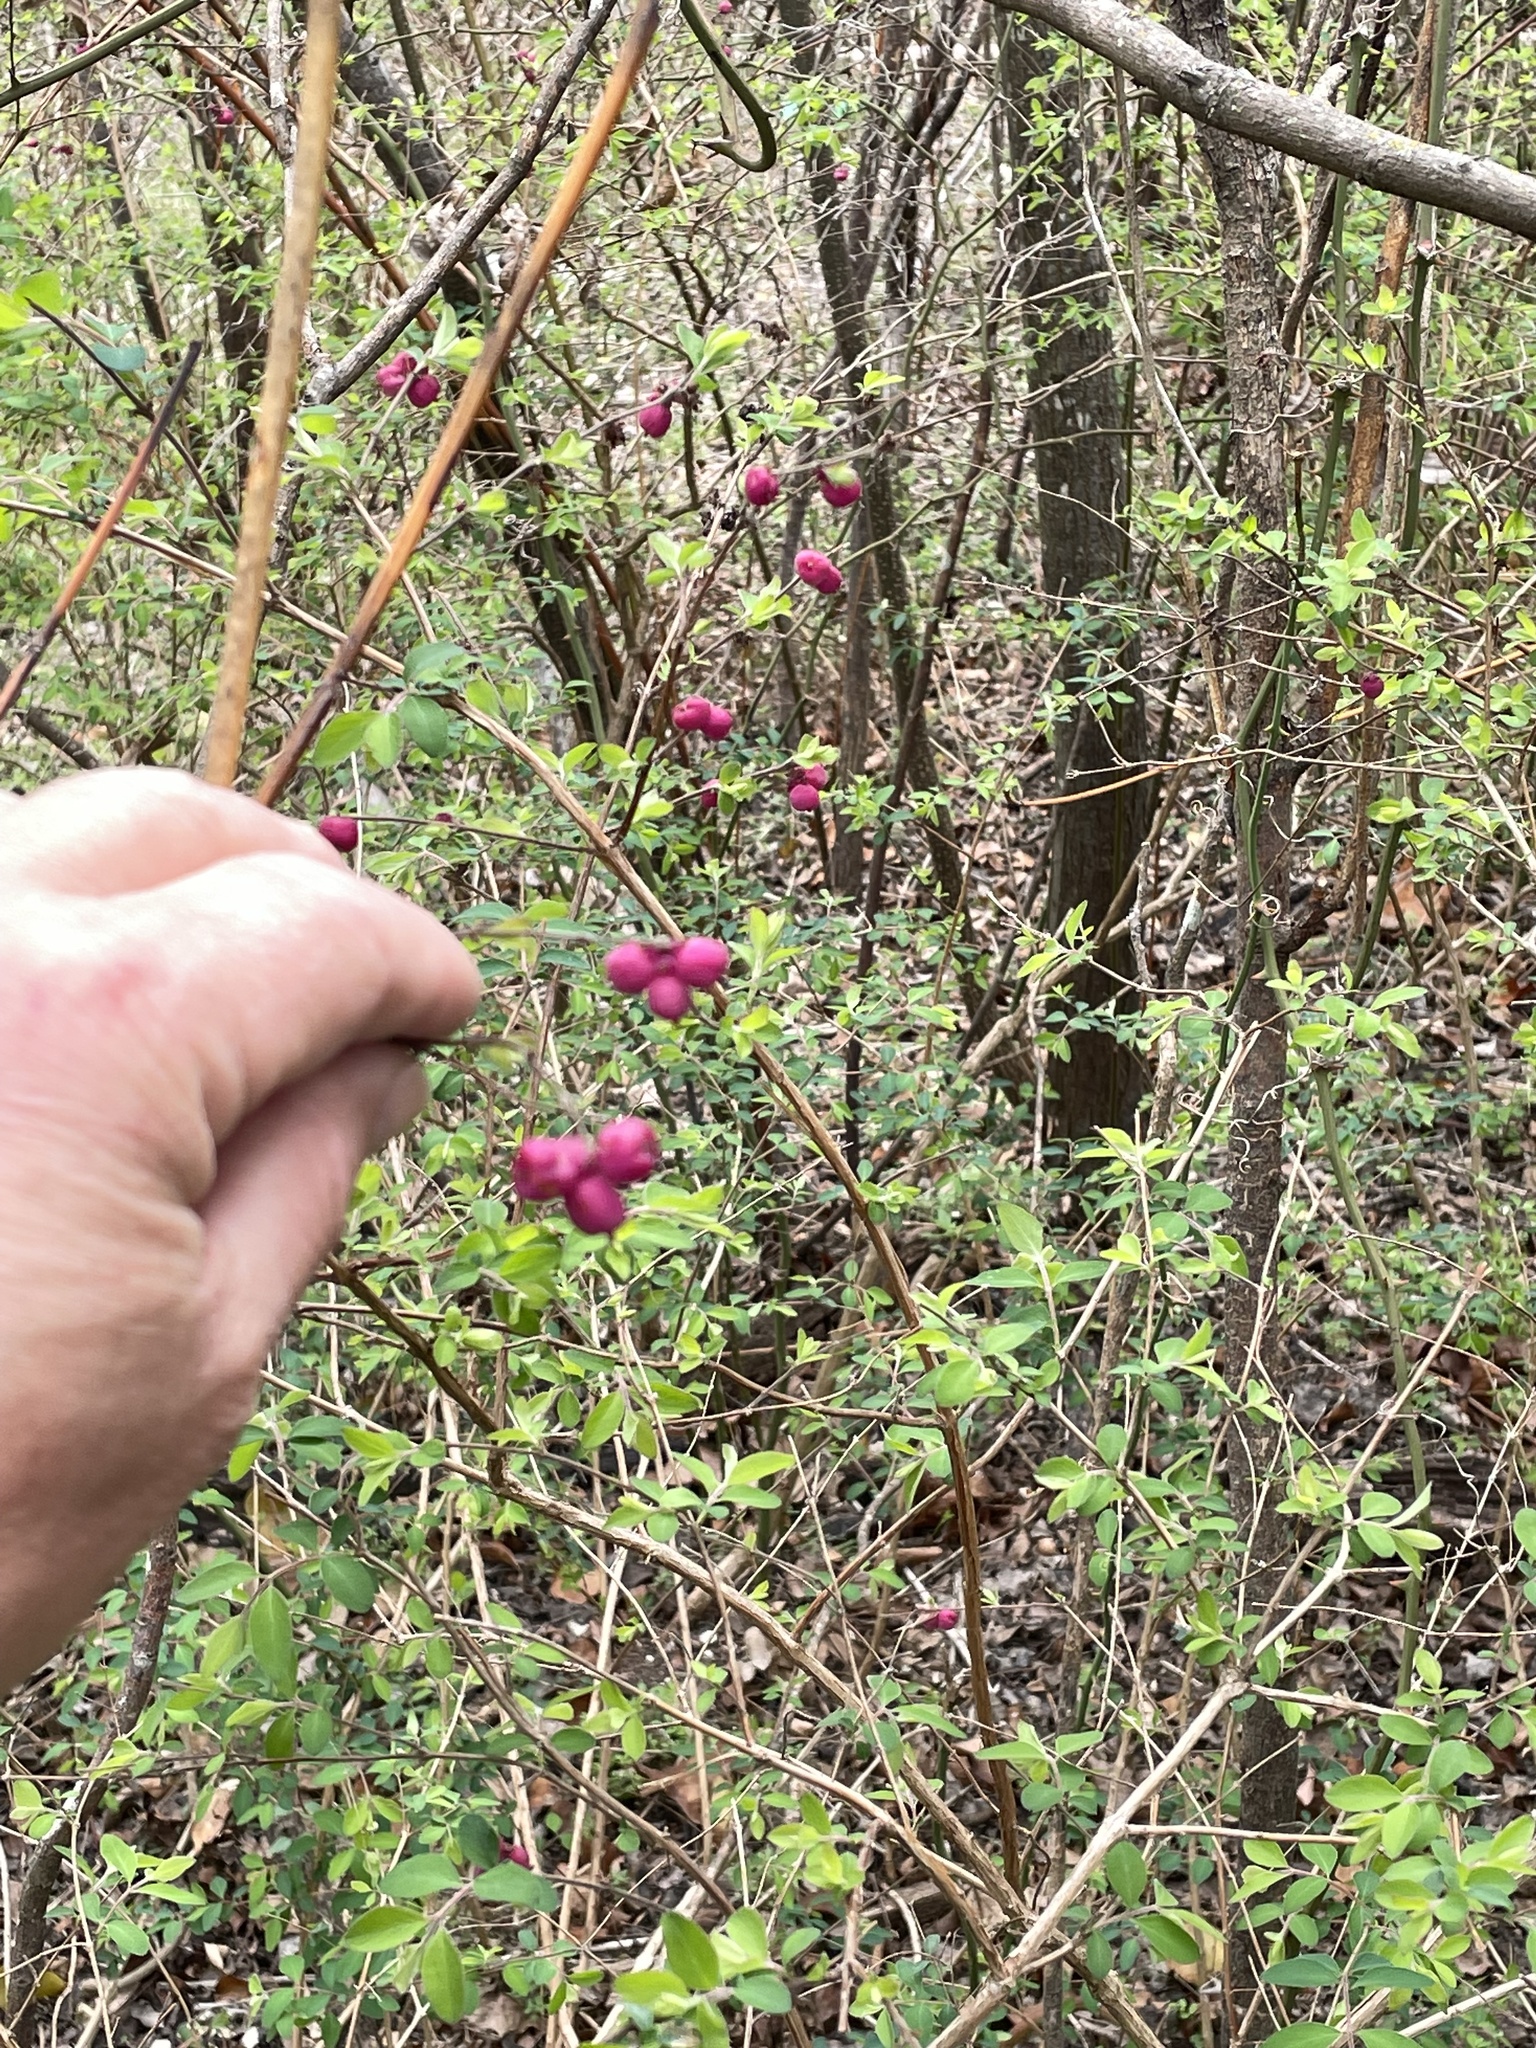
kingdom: Plantae
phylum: Tracheophyta
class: Magnoliopsida
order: Dipsacales
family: Caprifoliaceae
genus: Symphoricarpos
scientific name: Symphoricarpos orbiculatus
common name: Coralberry
